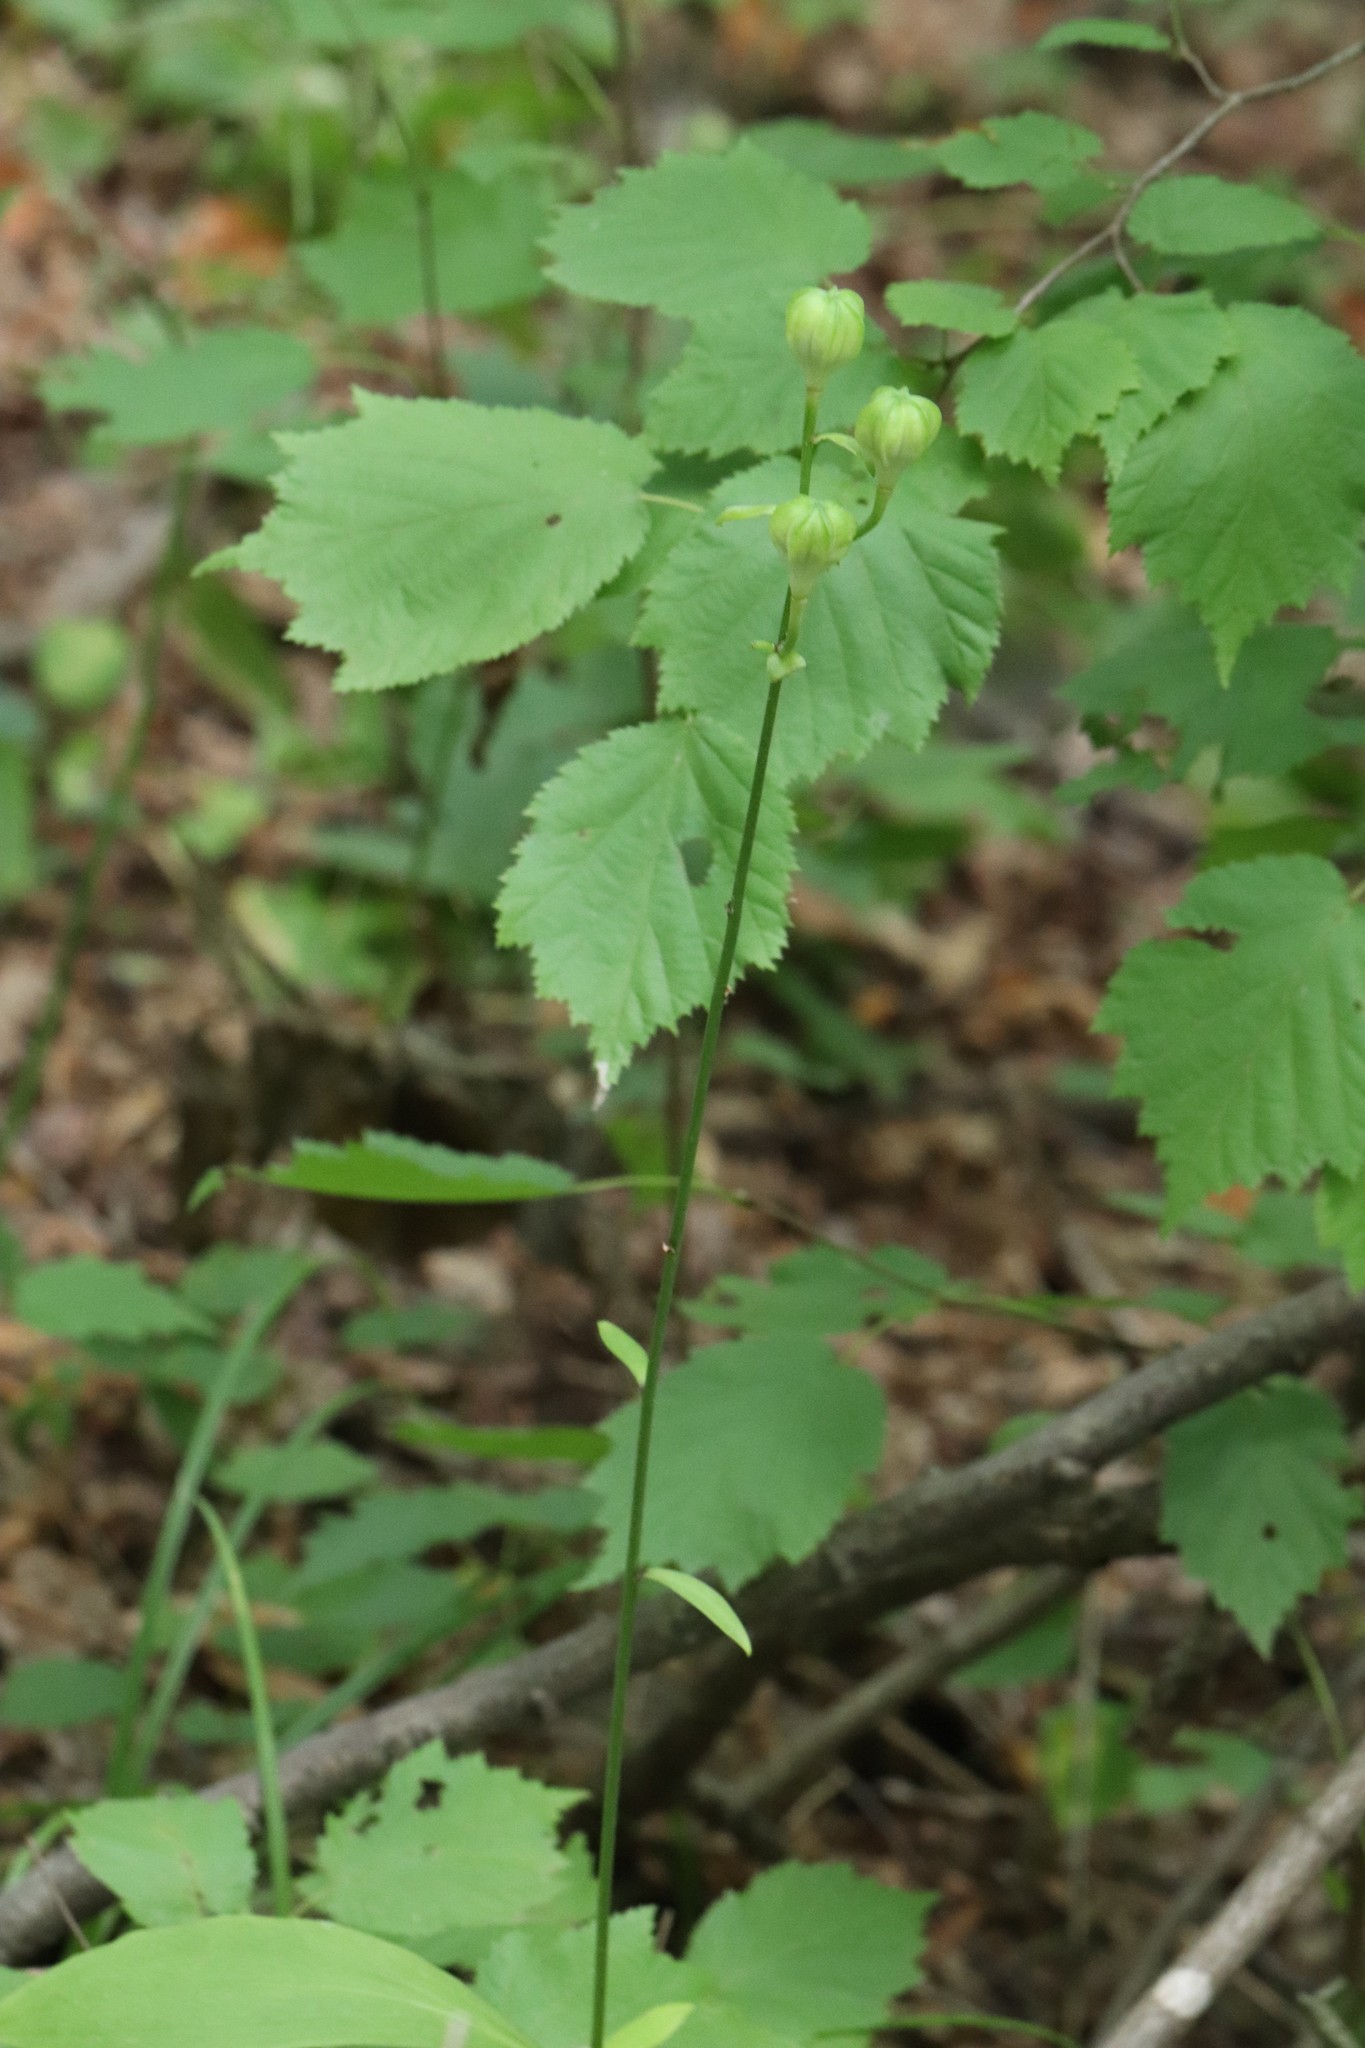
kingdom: Plantae
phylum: Tracheophyta
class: Liliopsida
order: Liliales
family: Liliaceae
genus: Lilium
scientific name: Lilium distichum
